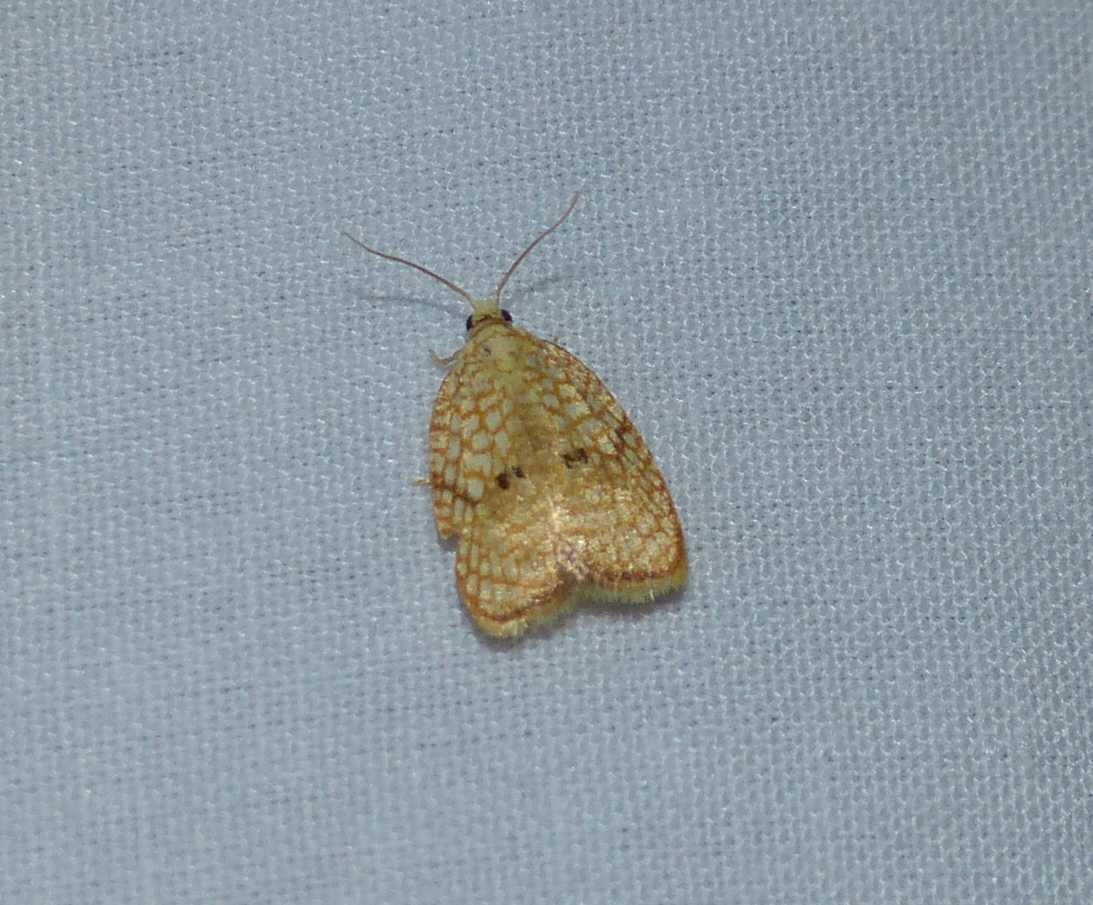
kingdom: Animalia
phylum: Arthropoda
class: Insecta
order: Lepidoptera
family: Tortricidae
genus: Acleris
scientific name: Acleris forsskaleana
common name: Maple button
